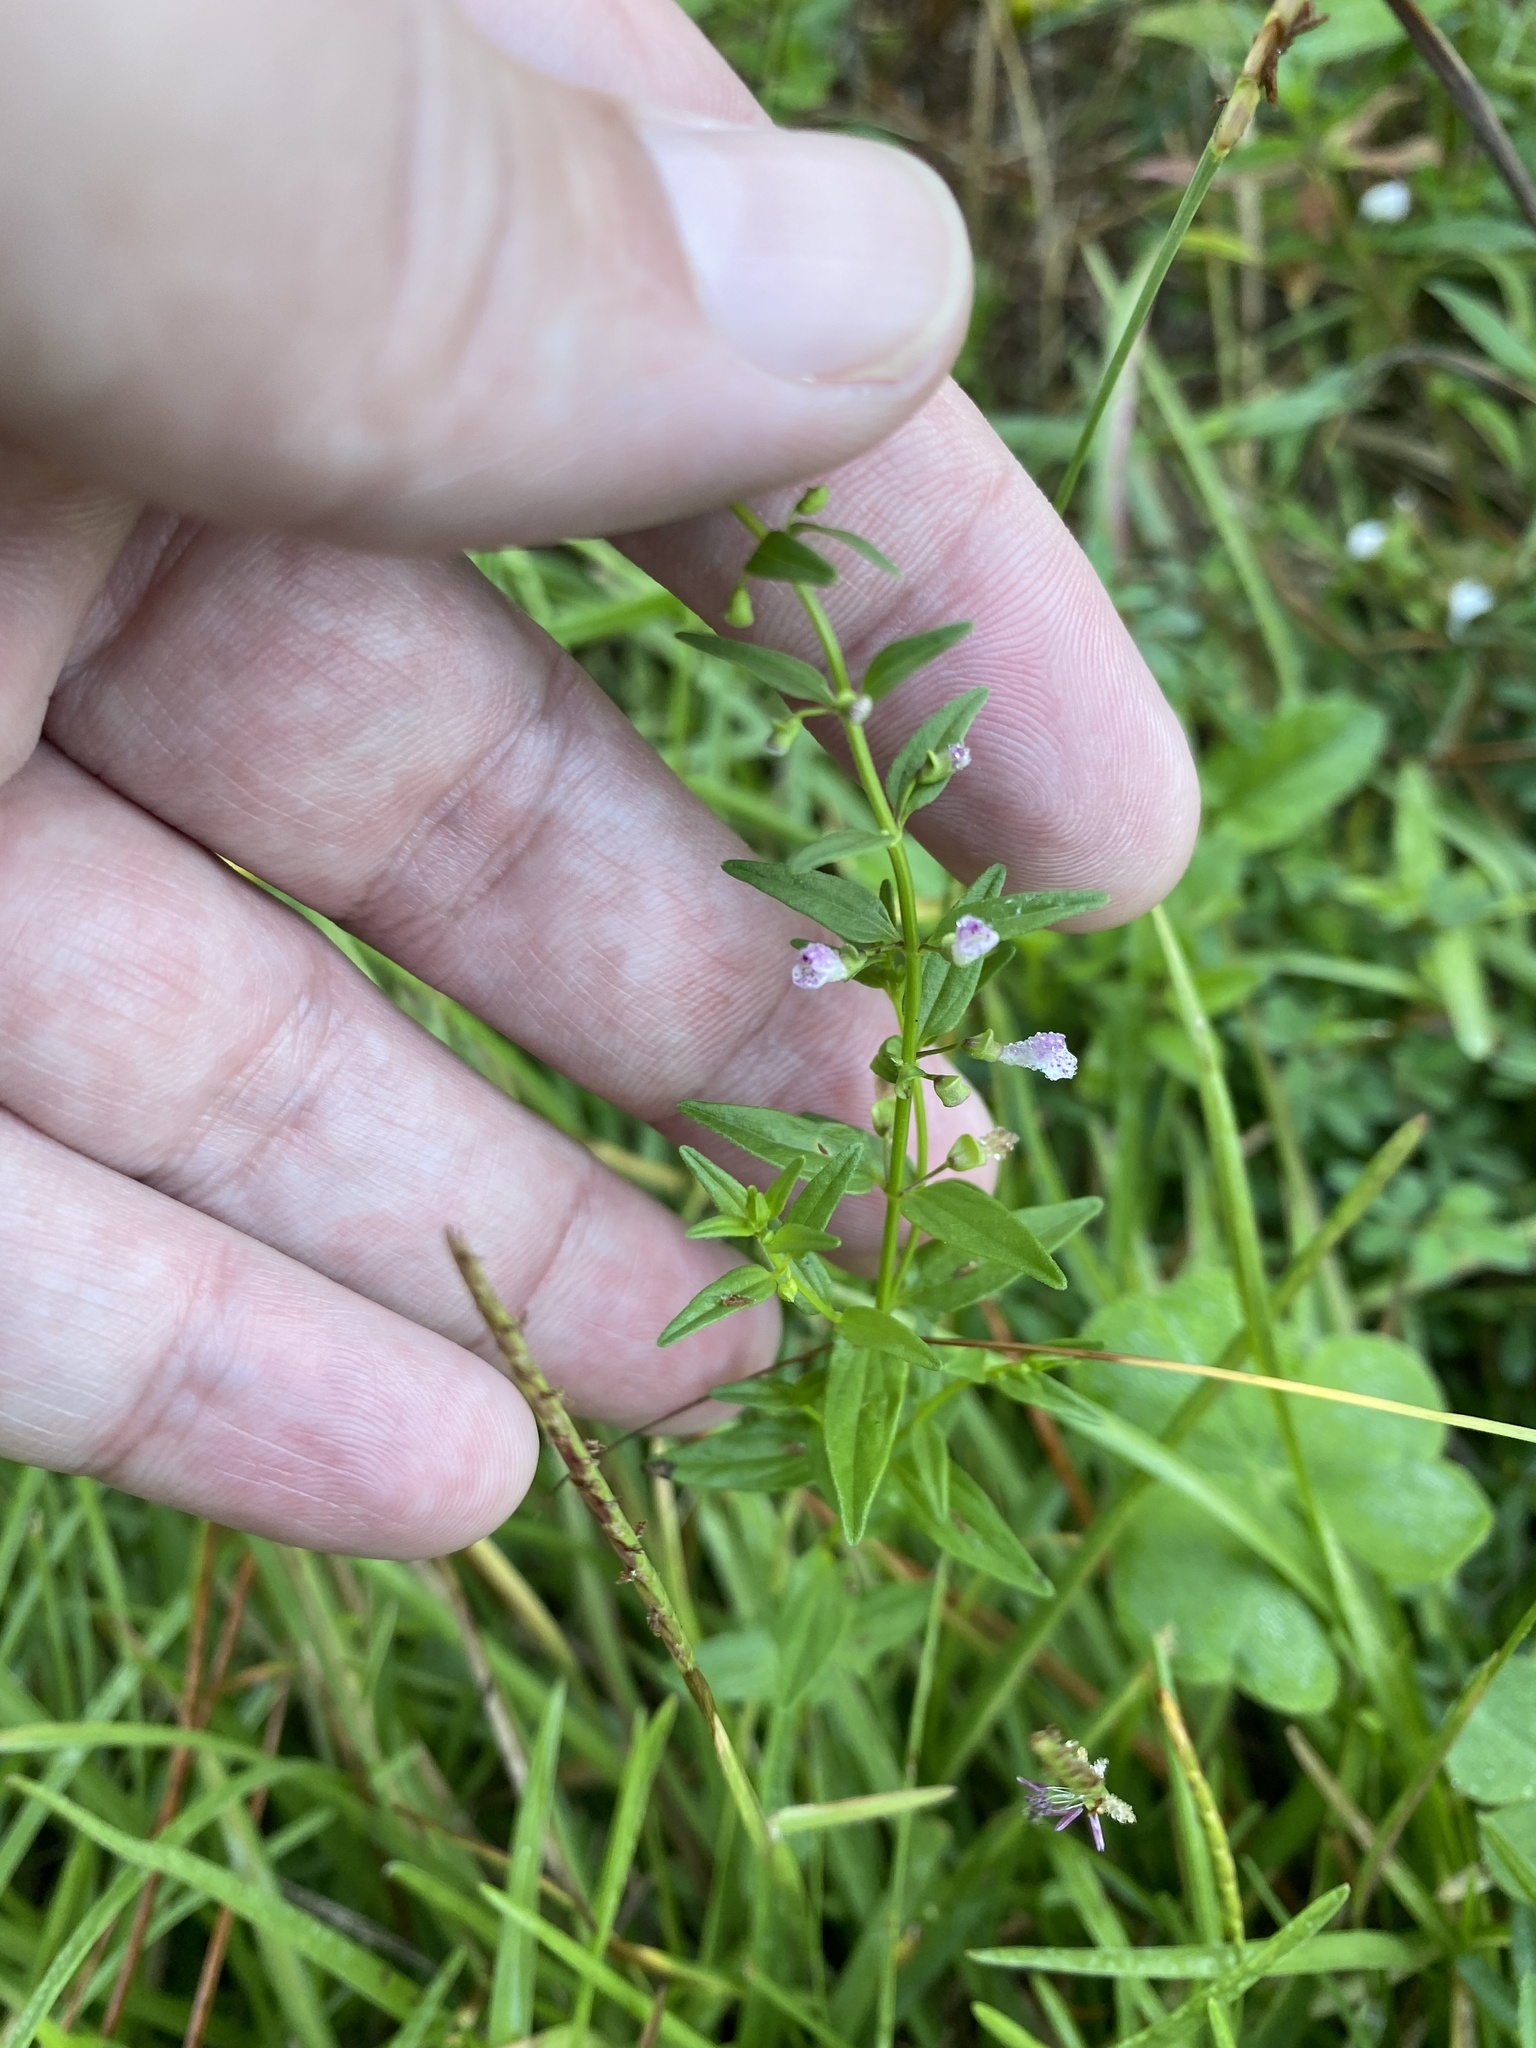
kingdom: Plantae
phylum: Tracheophyta
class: Magnoliopsida
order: Lamiales
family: Lamiaceae
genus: Scutellaria
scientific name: Scutellaria racemosa
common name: South american skullcap
